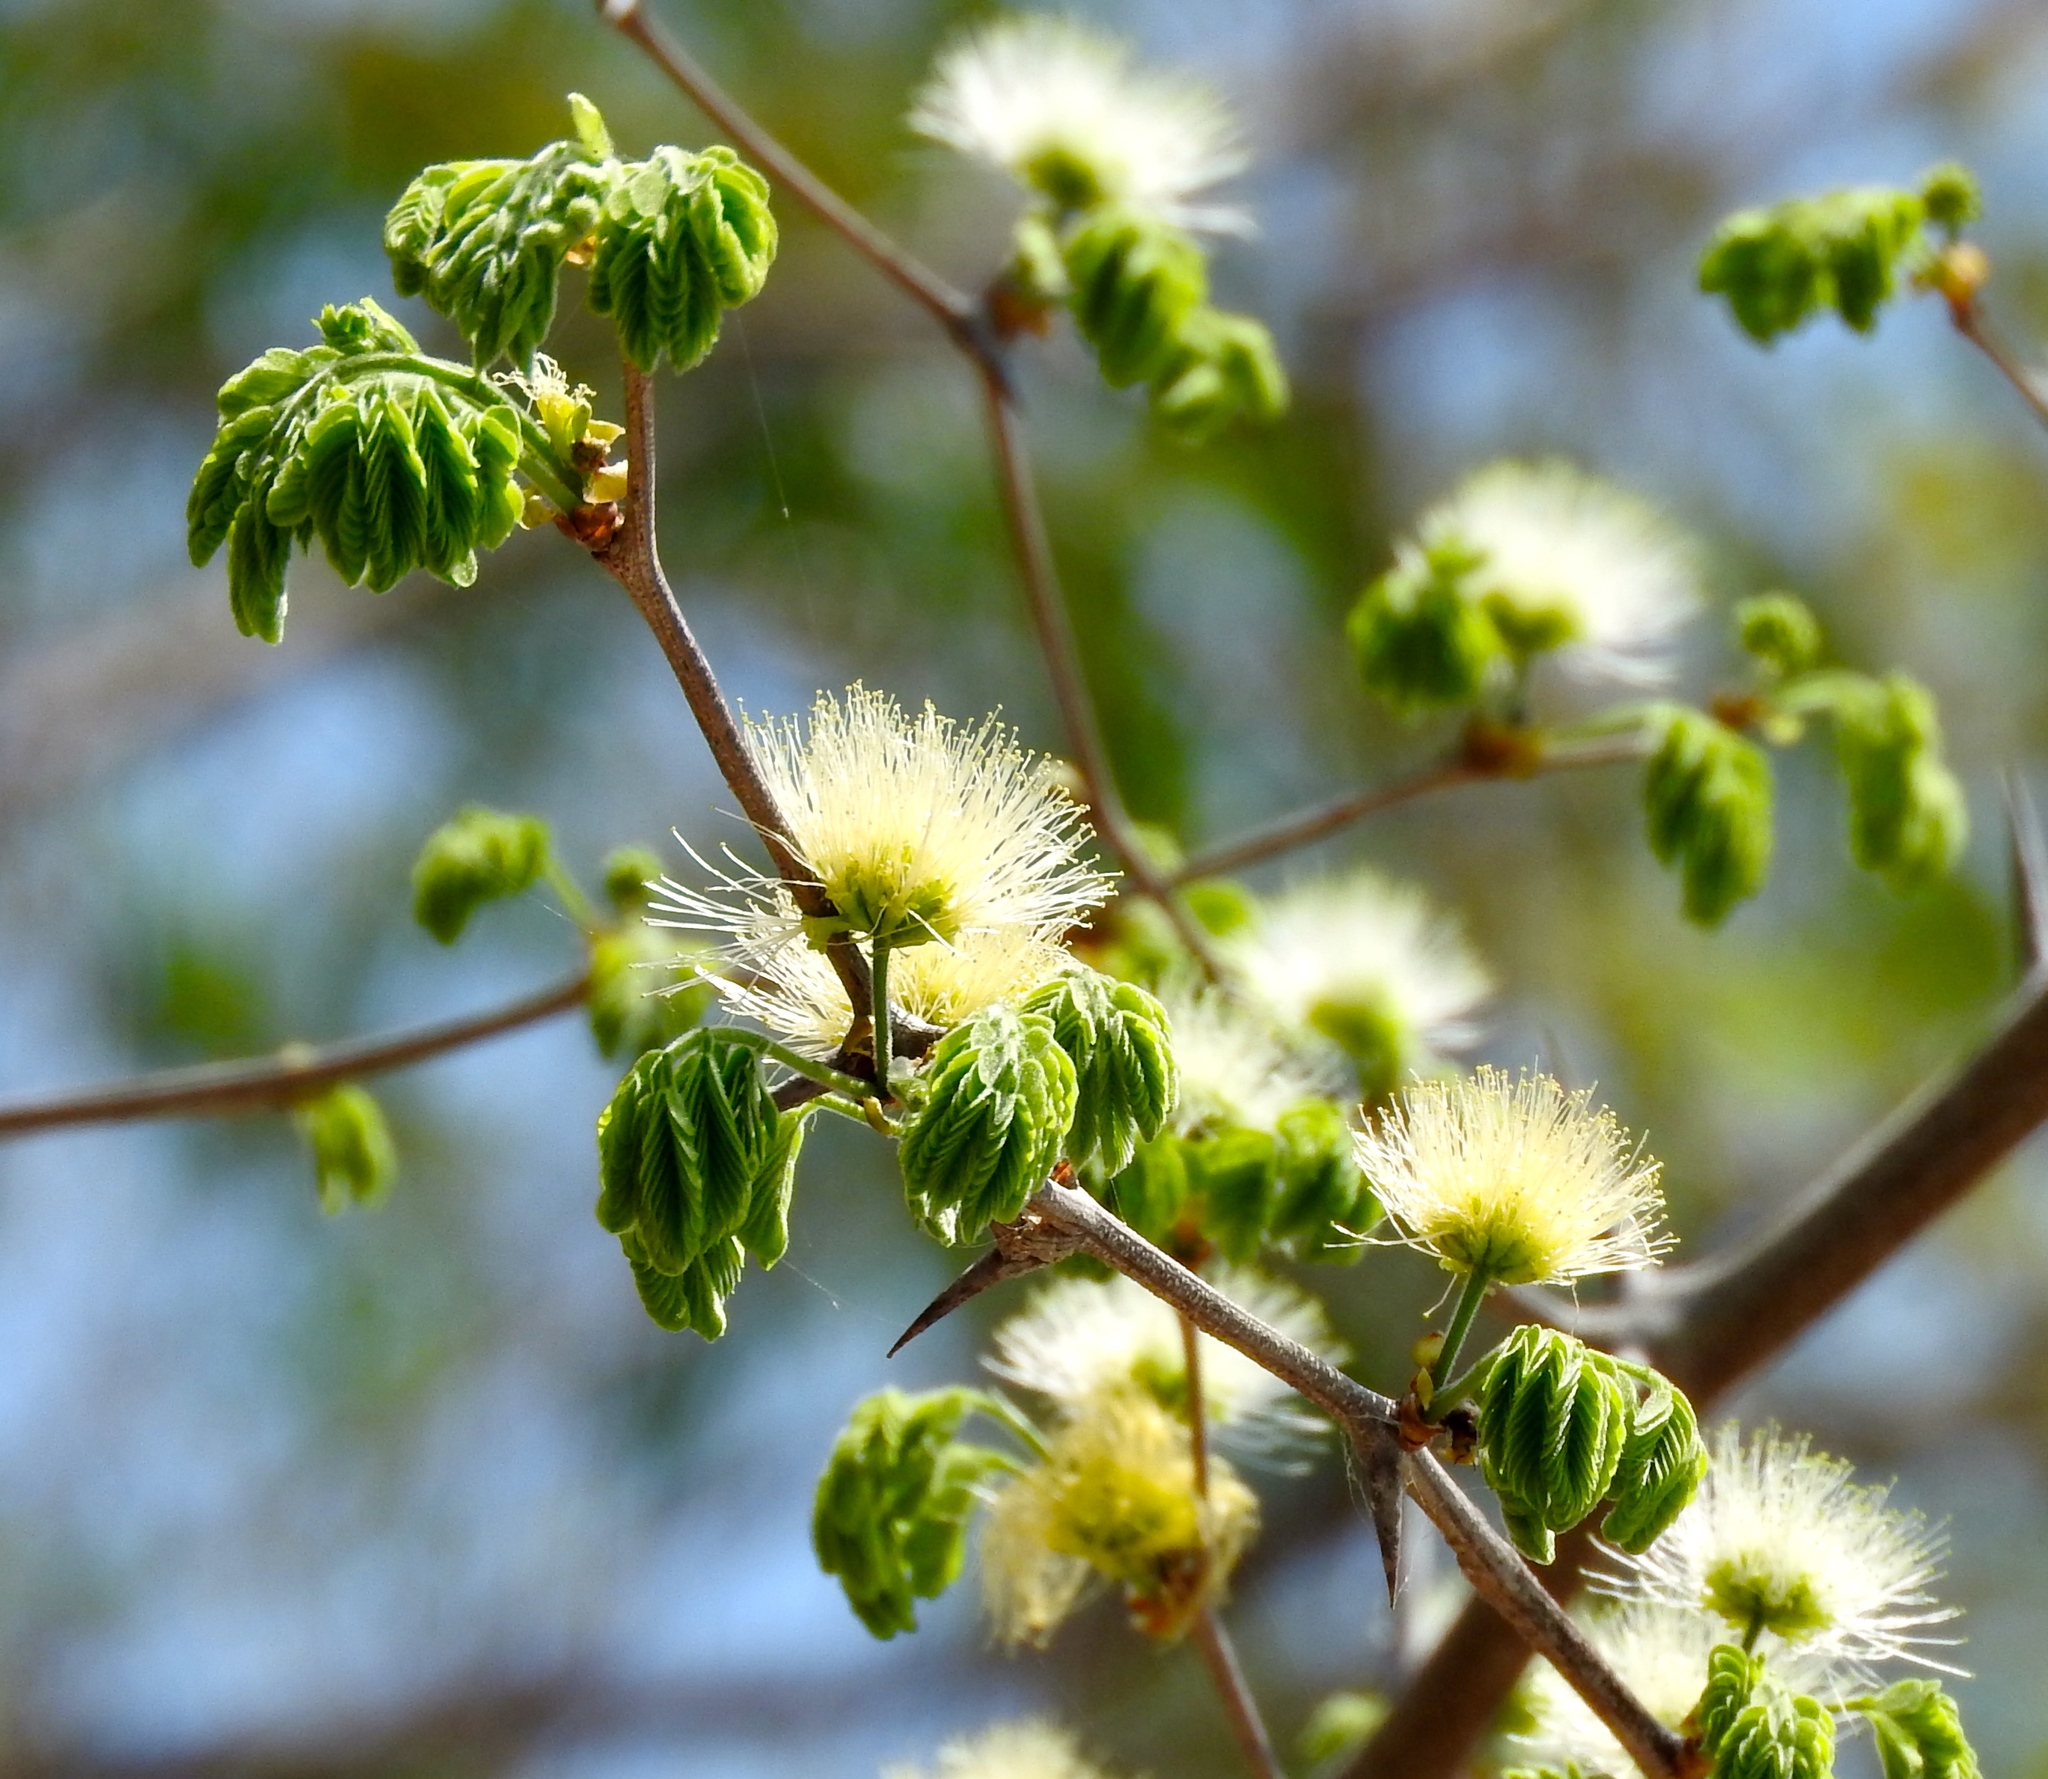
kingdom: Plantae
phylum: Tracheophyta
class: Magnoliopsida
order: Fabales
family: Fabaceae
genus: Chloroleucon
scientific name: Chloroleucon mangense
